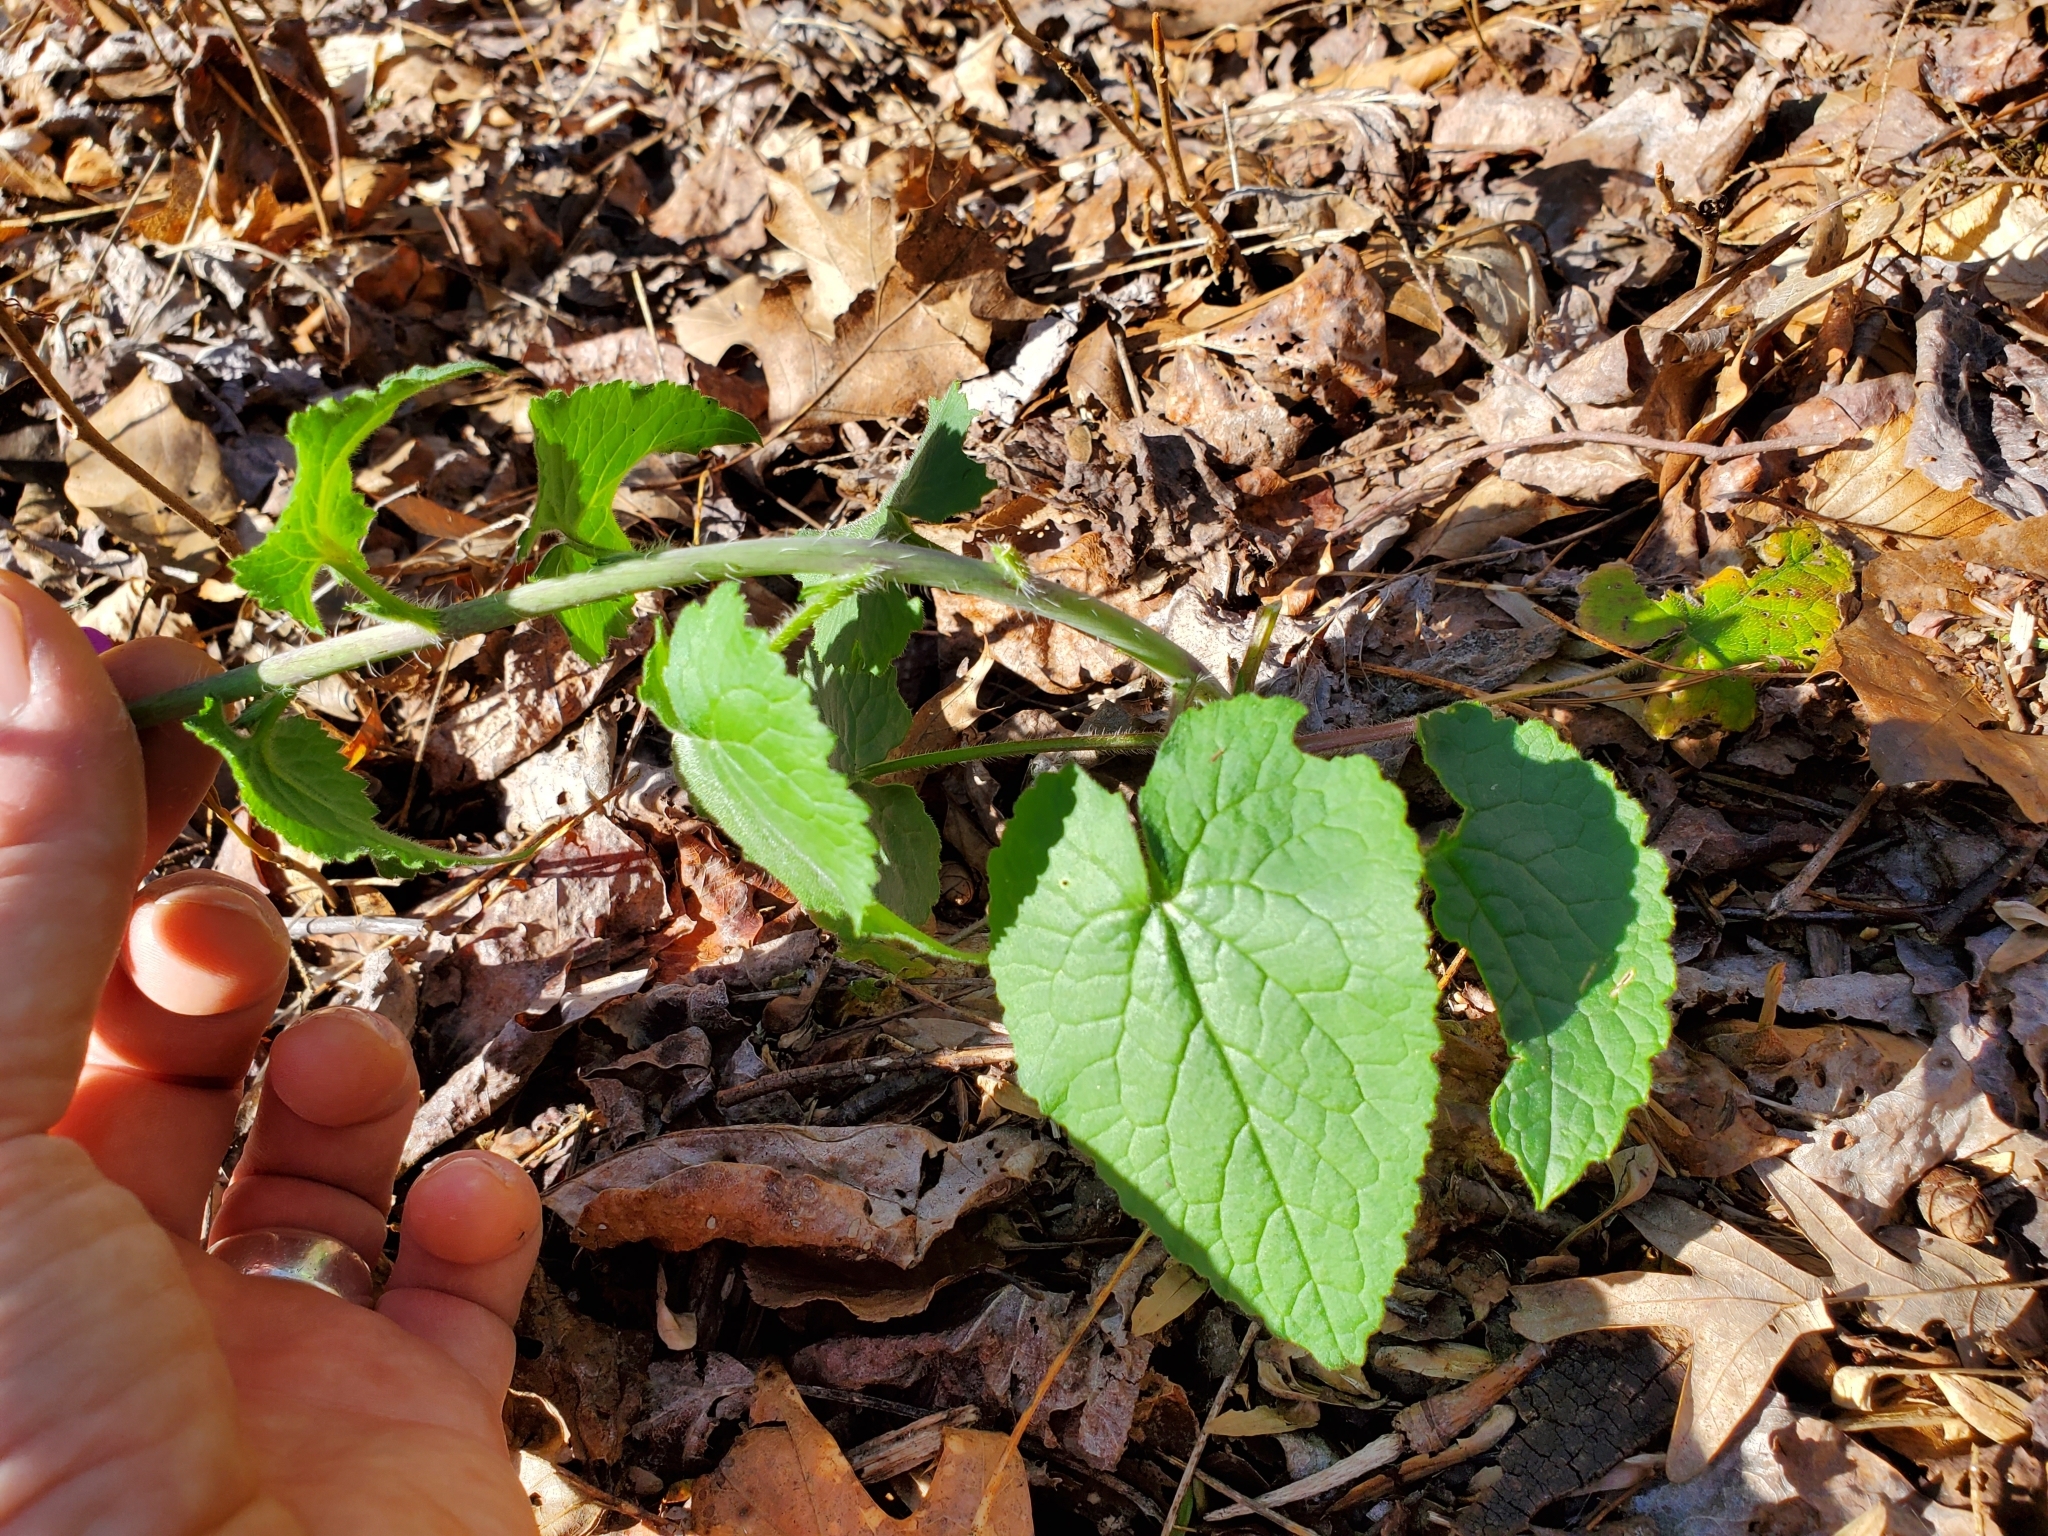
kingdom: Plantae
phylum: Tracheophyta
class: Magnoliopsida
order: Brassicales
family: Brassicaceae
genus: Lunaria
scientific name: Lunaria annua
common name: Honesty
